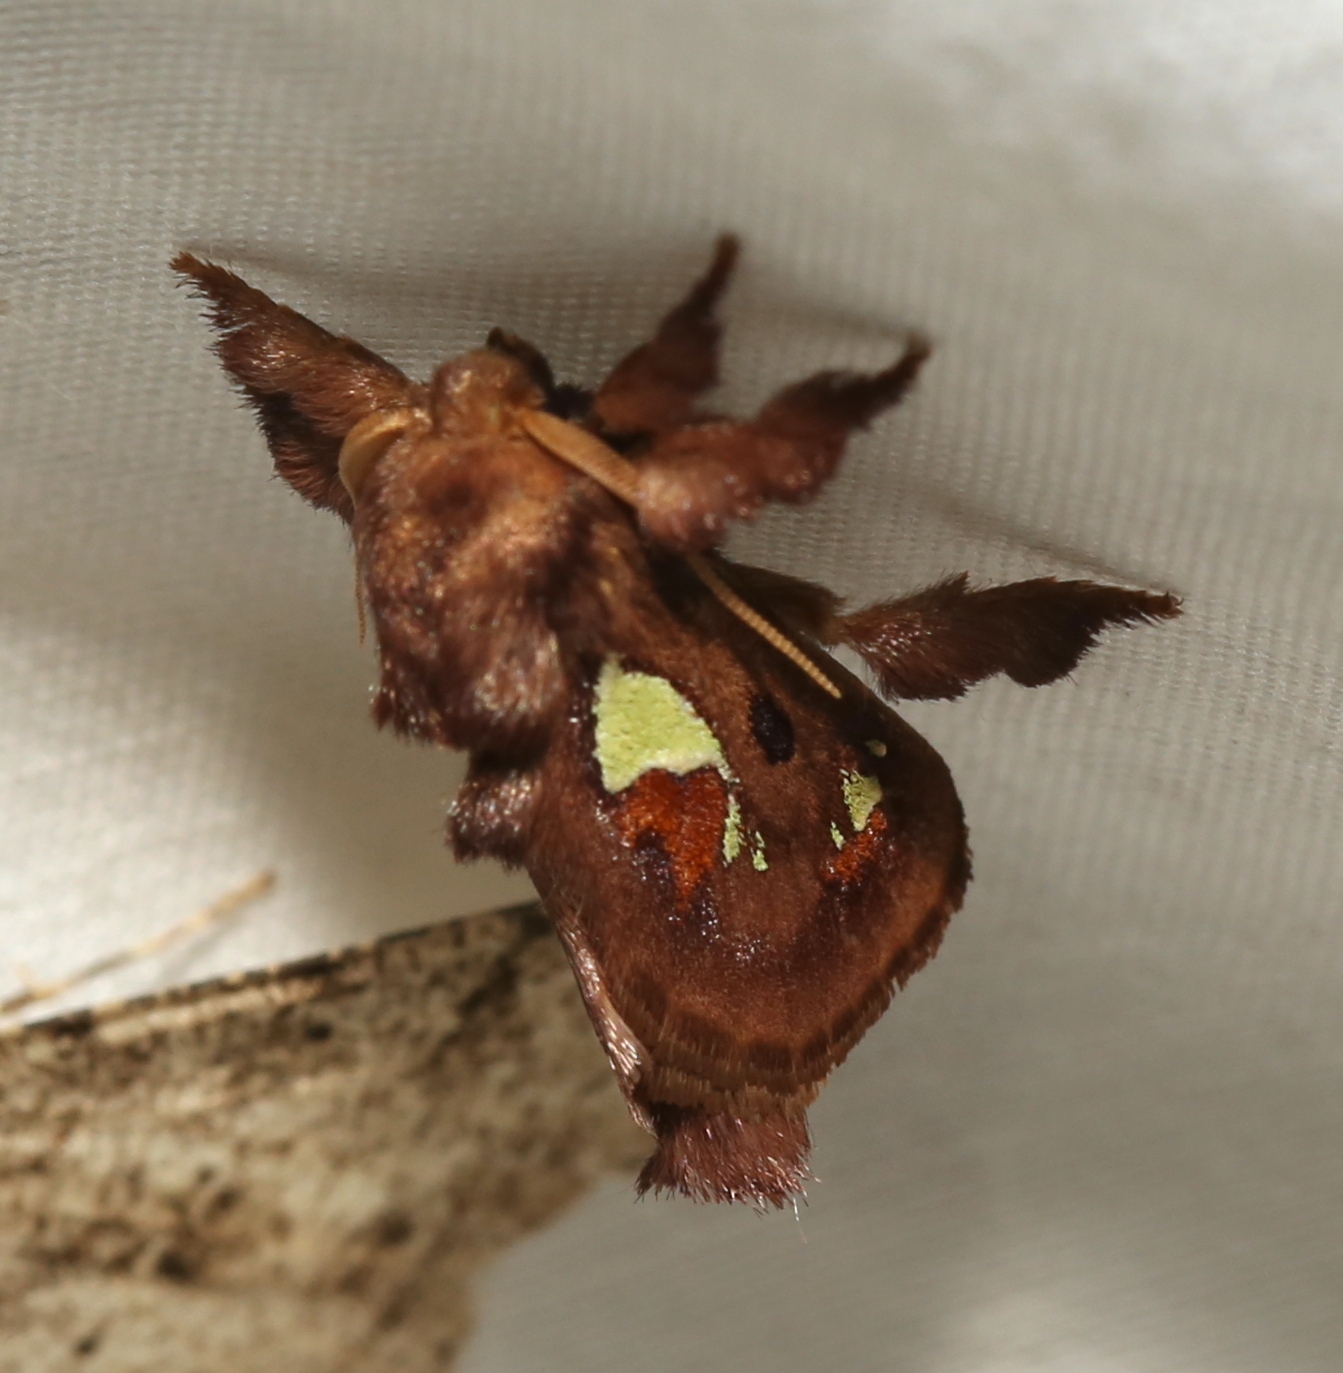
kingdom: Animalia
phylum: Arthropoda
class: Insecta
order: Lepidoptera
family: Limacodidae
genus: Euclea
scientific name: Euclea delphinii
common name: Spiny oak-slug moth
